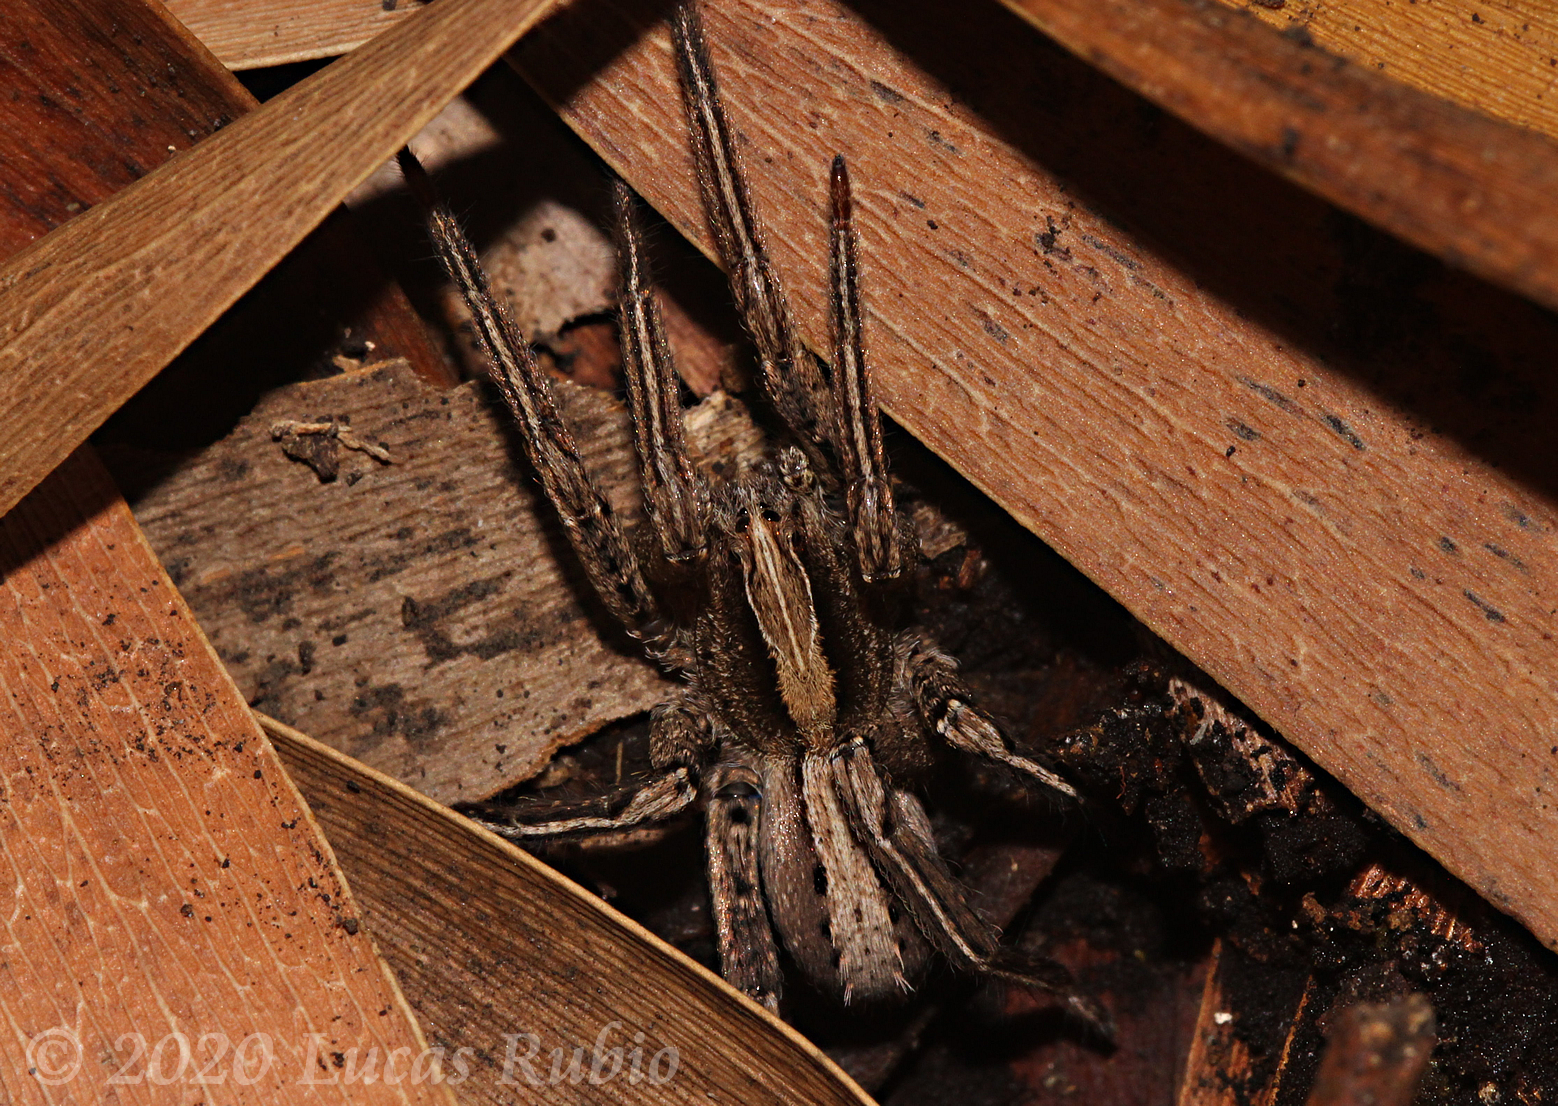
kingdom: Animalia
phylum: Arthropoda
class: Arachnida
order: Araneae
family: Ctenidae
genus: Parabatinga
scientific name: Parabatinga brevipes
